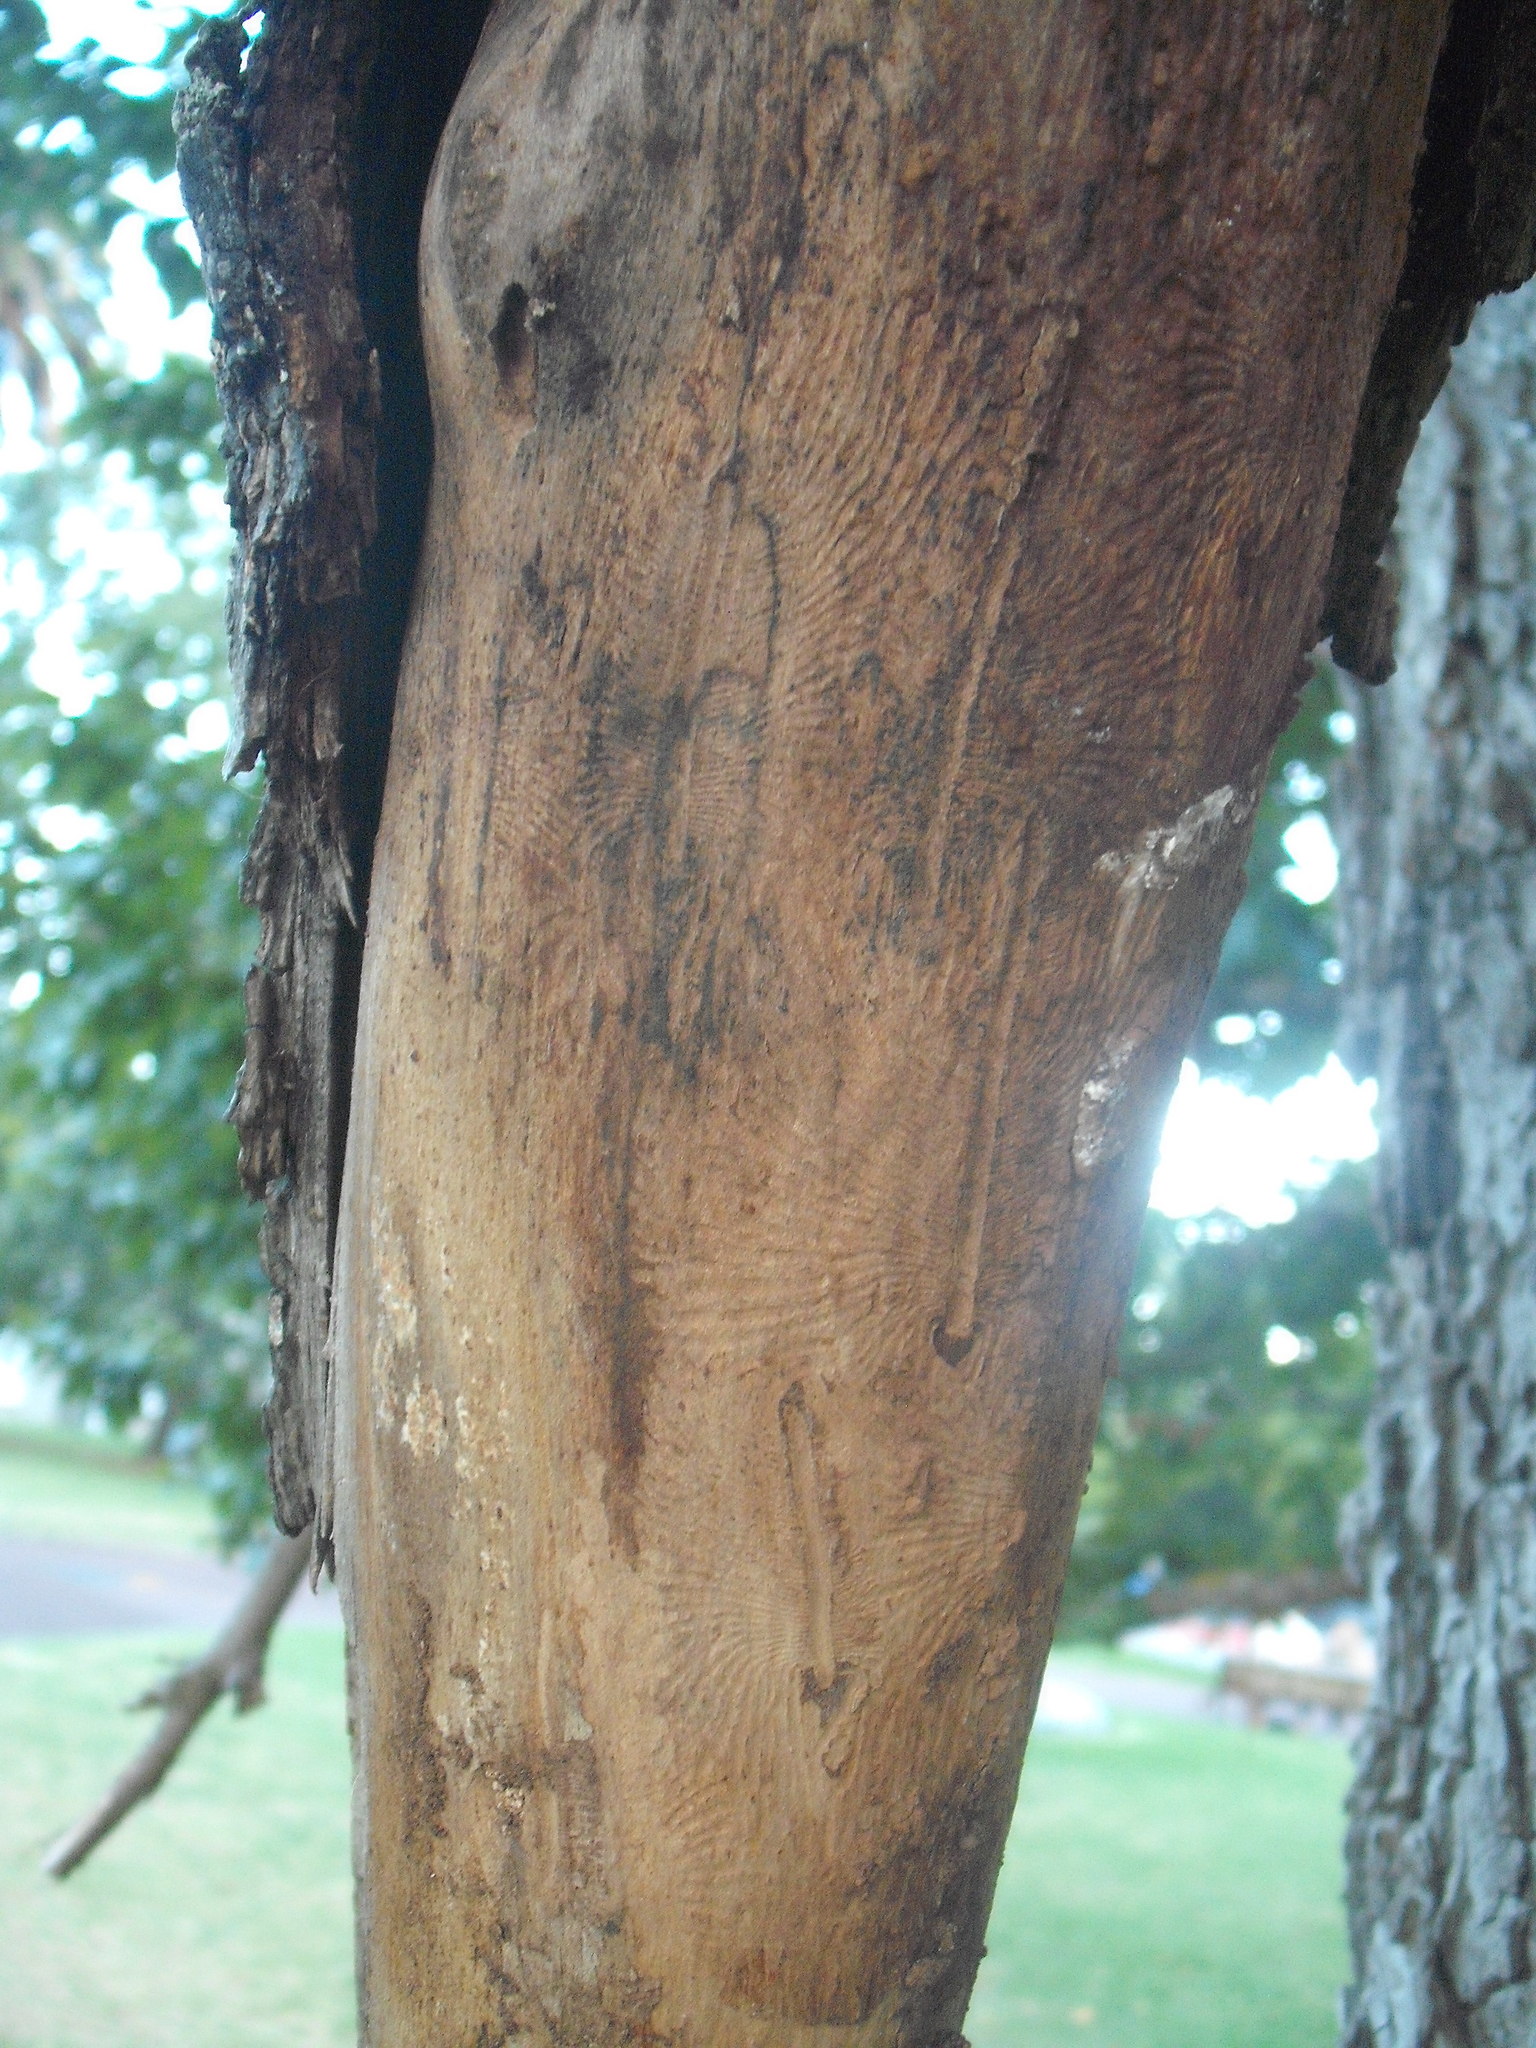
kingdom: Animalia
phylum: Arthropoda
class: Insecta
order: Coleoptera
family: Curculionidae
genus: Scolytus
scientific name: Scolytus multistriatus
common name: European elm bark beetle
